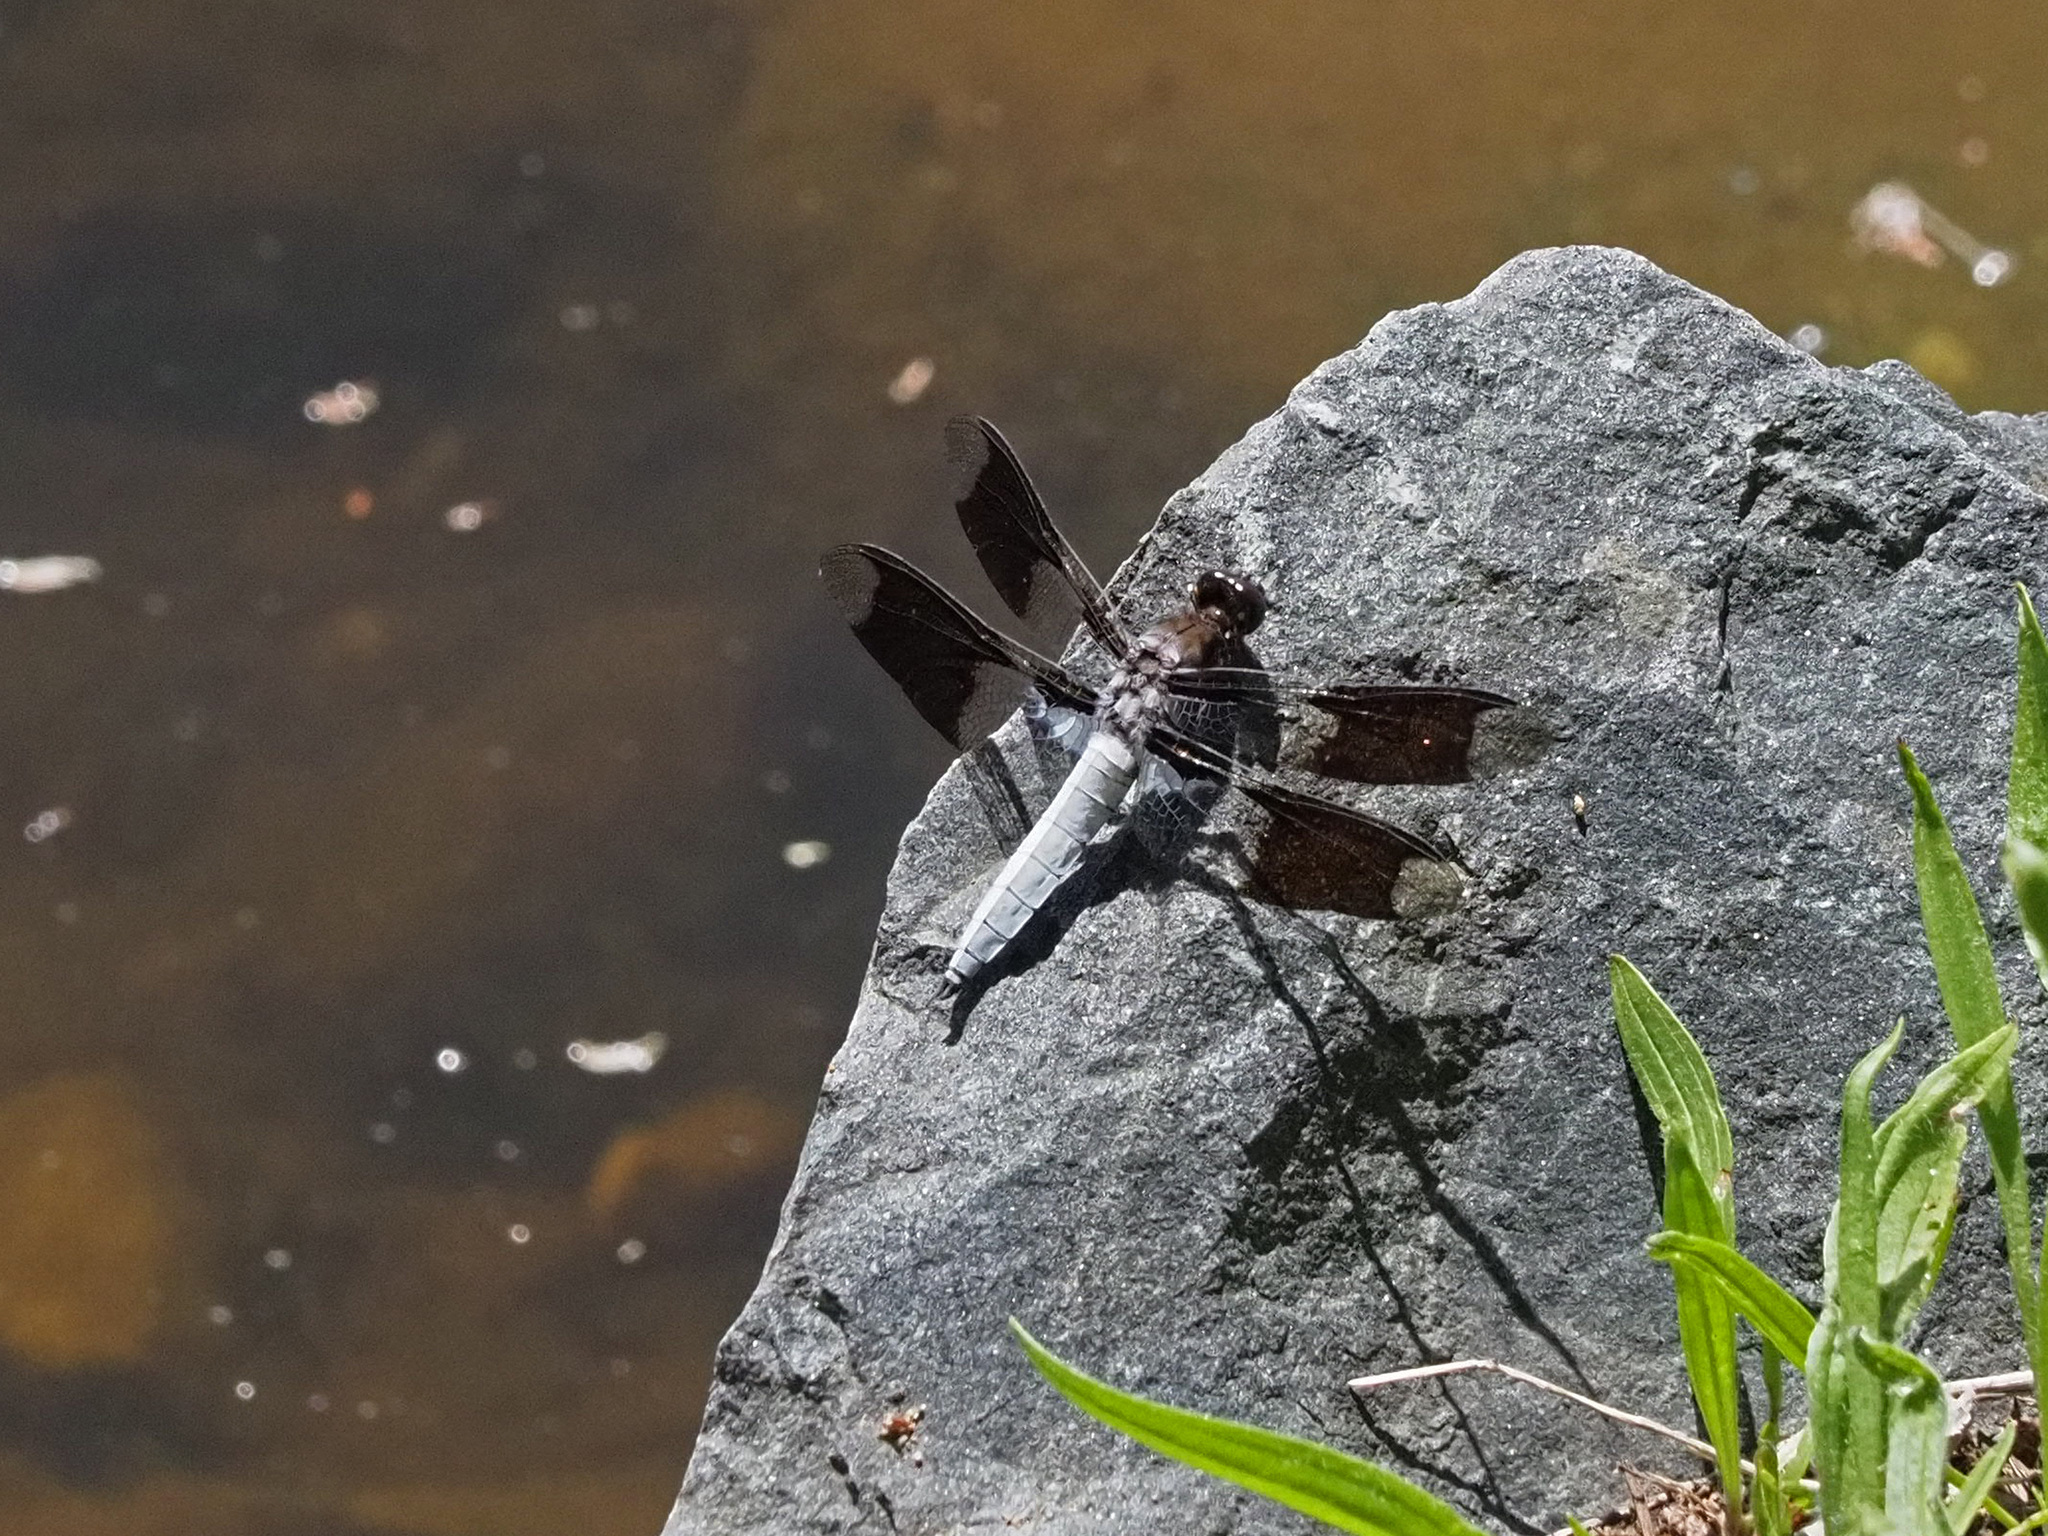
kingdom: Animalia
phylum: Arthropoda
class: Insecta
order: Odonata
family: Libellulidae
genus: Plathemis
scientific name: Plathemis lydia
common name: Common whitetail
